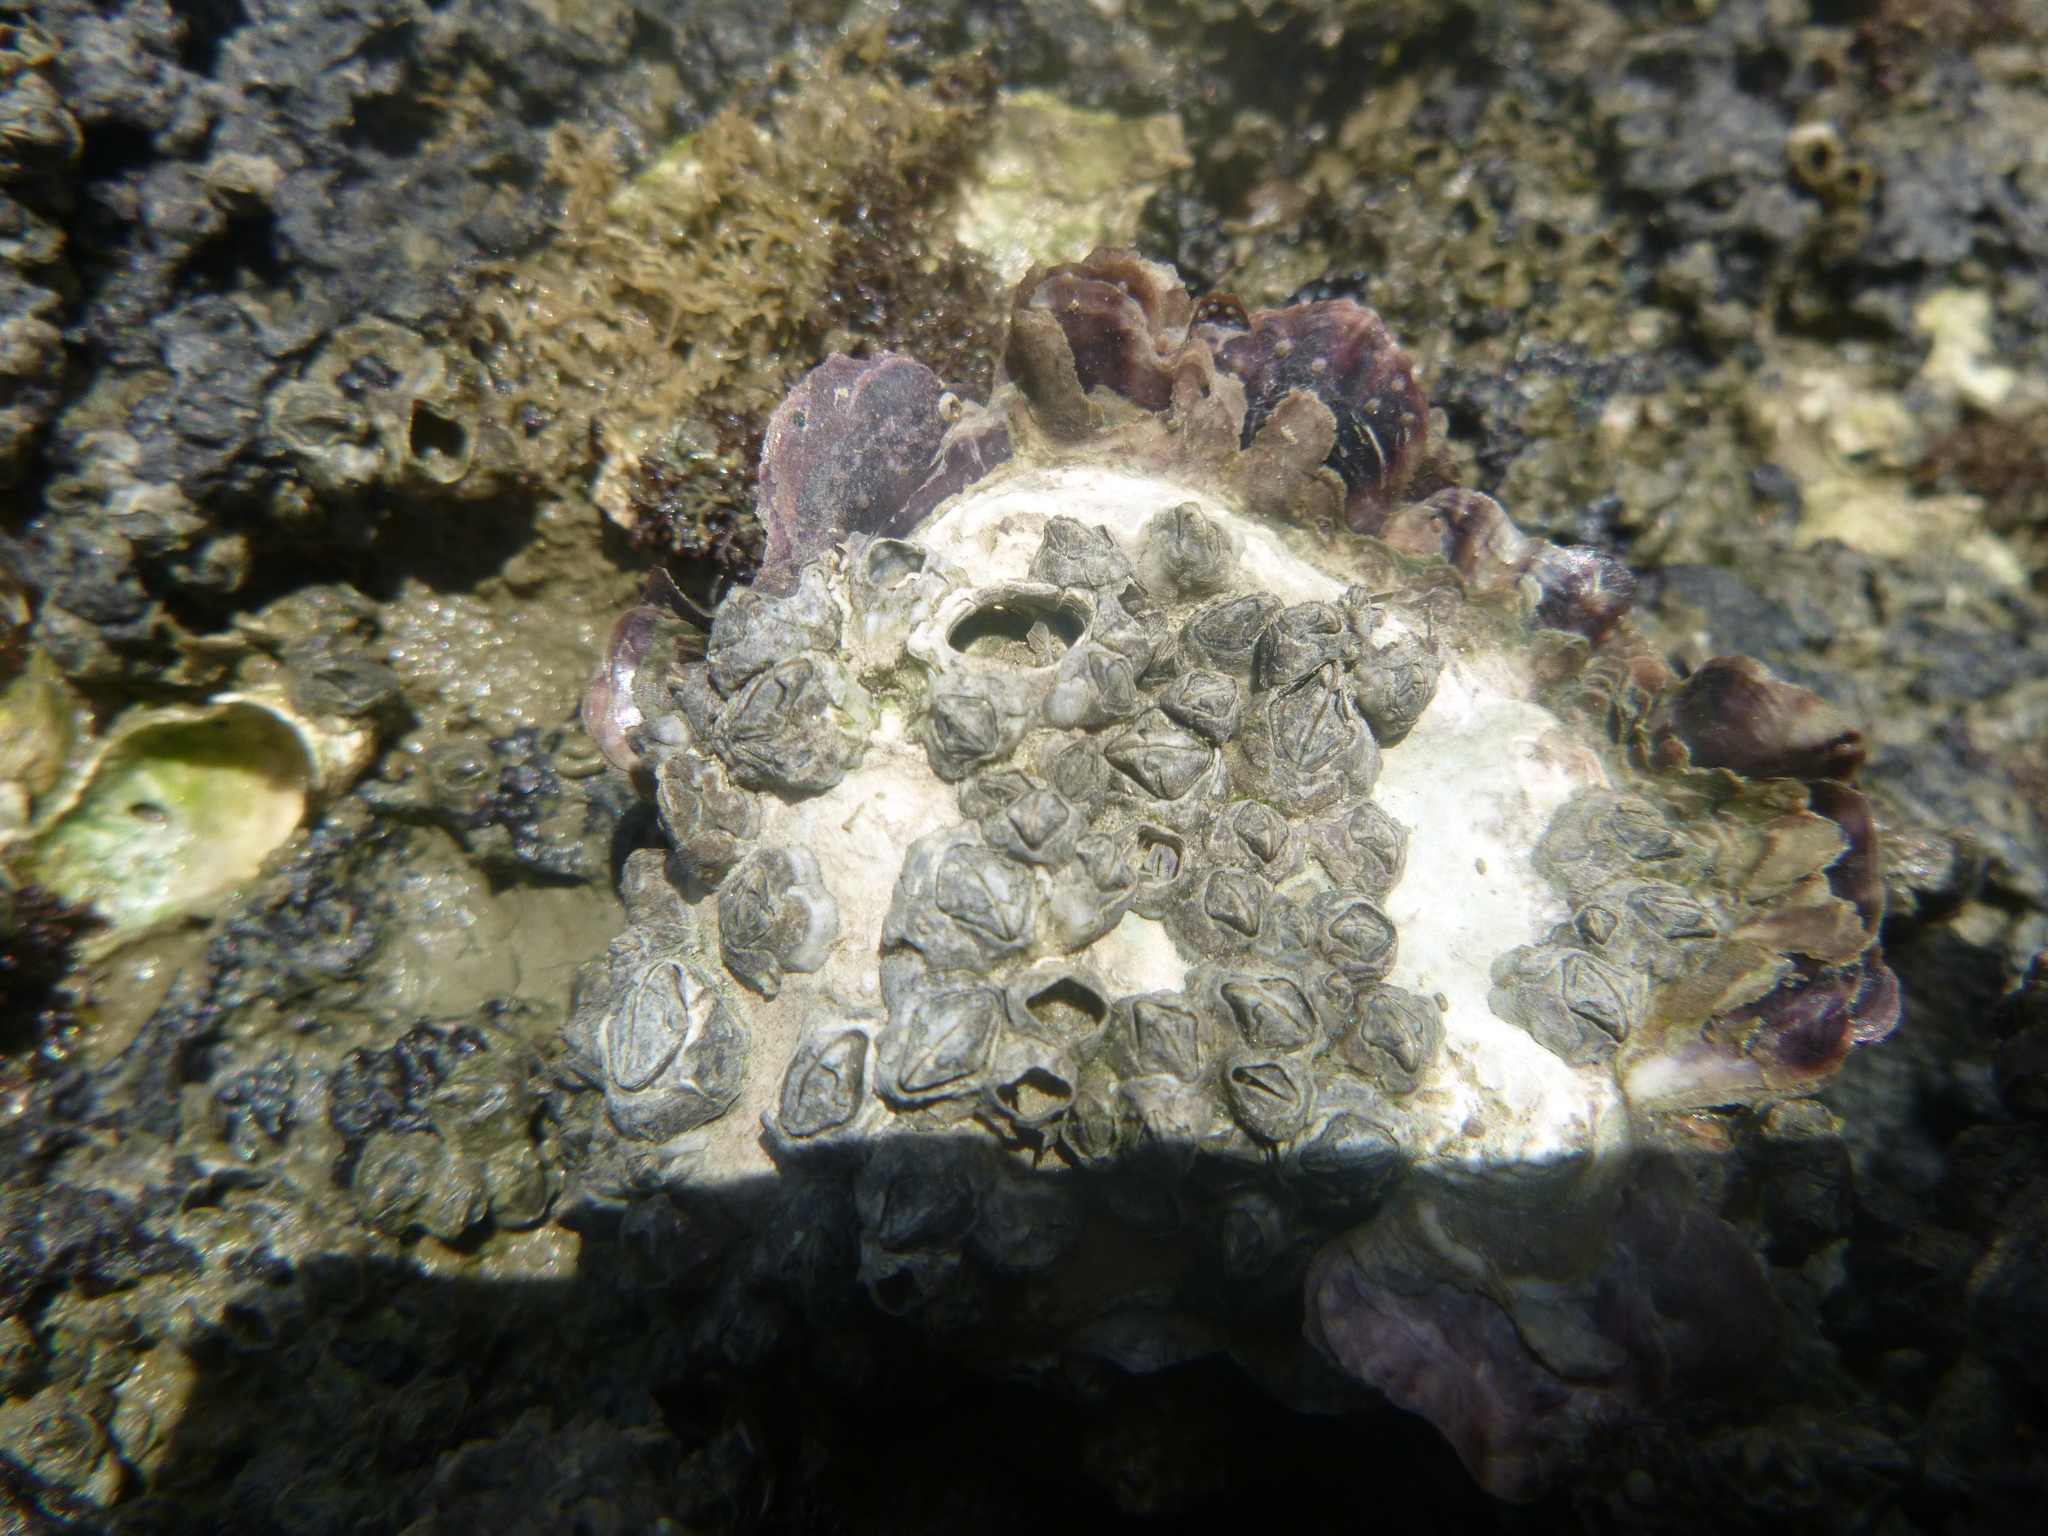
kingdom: Animalia
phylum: Mollusca
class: Bivalvia
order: Ostreida
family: Ostreidae
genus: Magallana
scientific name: Magallana gigas
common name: Pacific oyster
